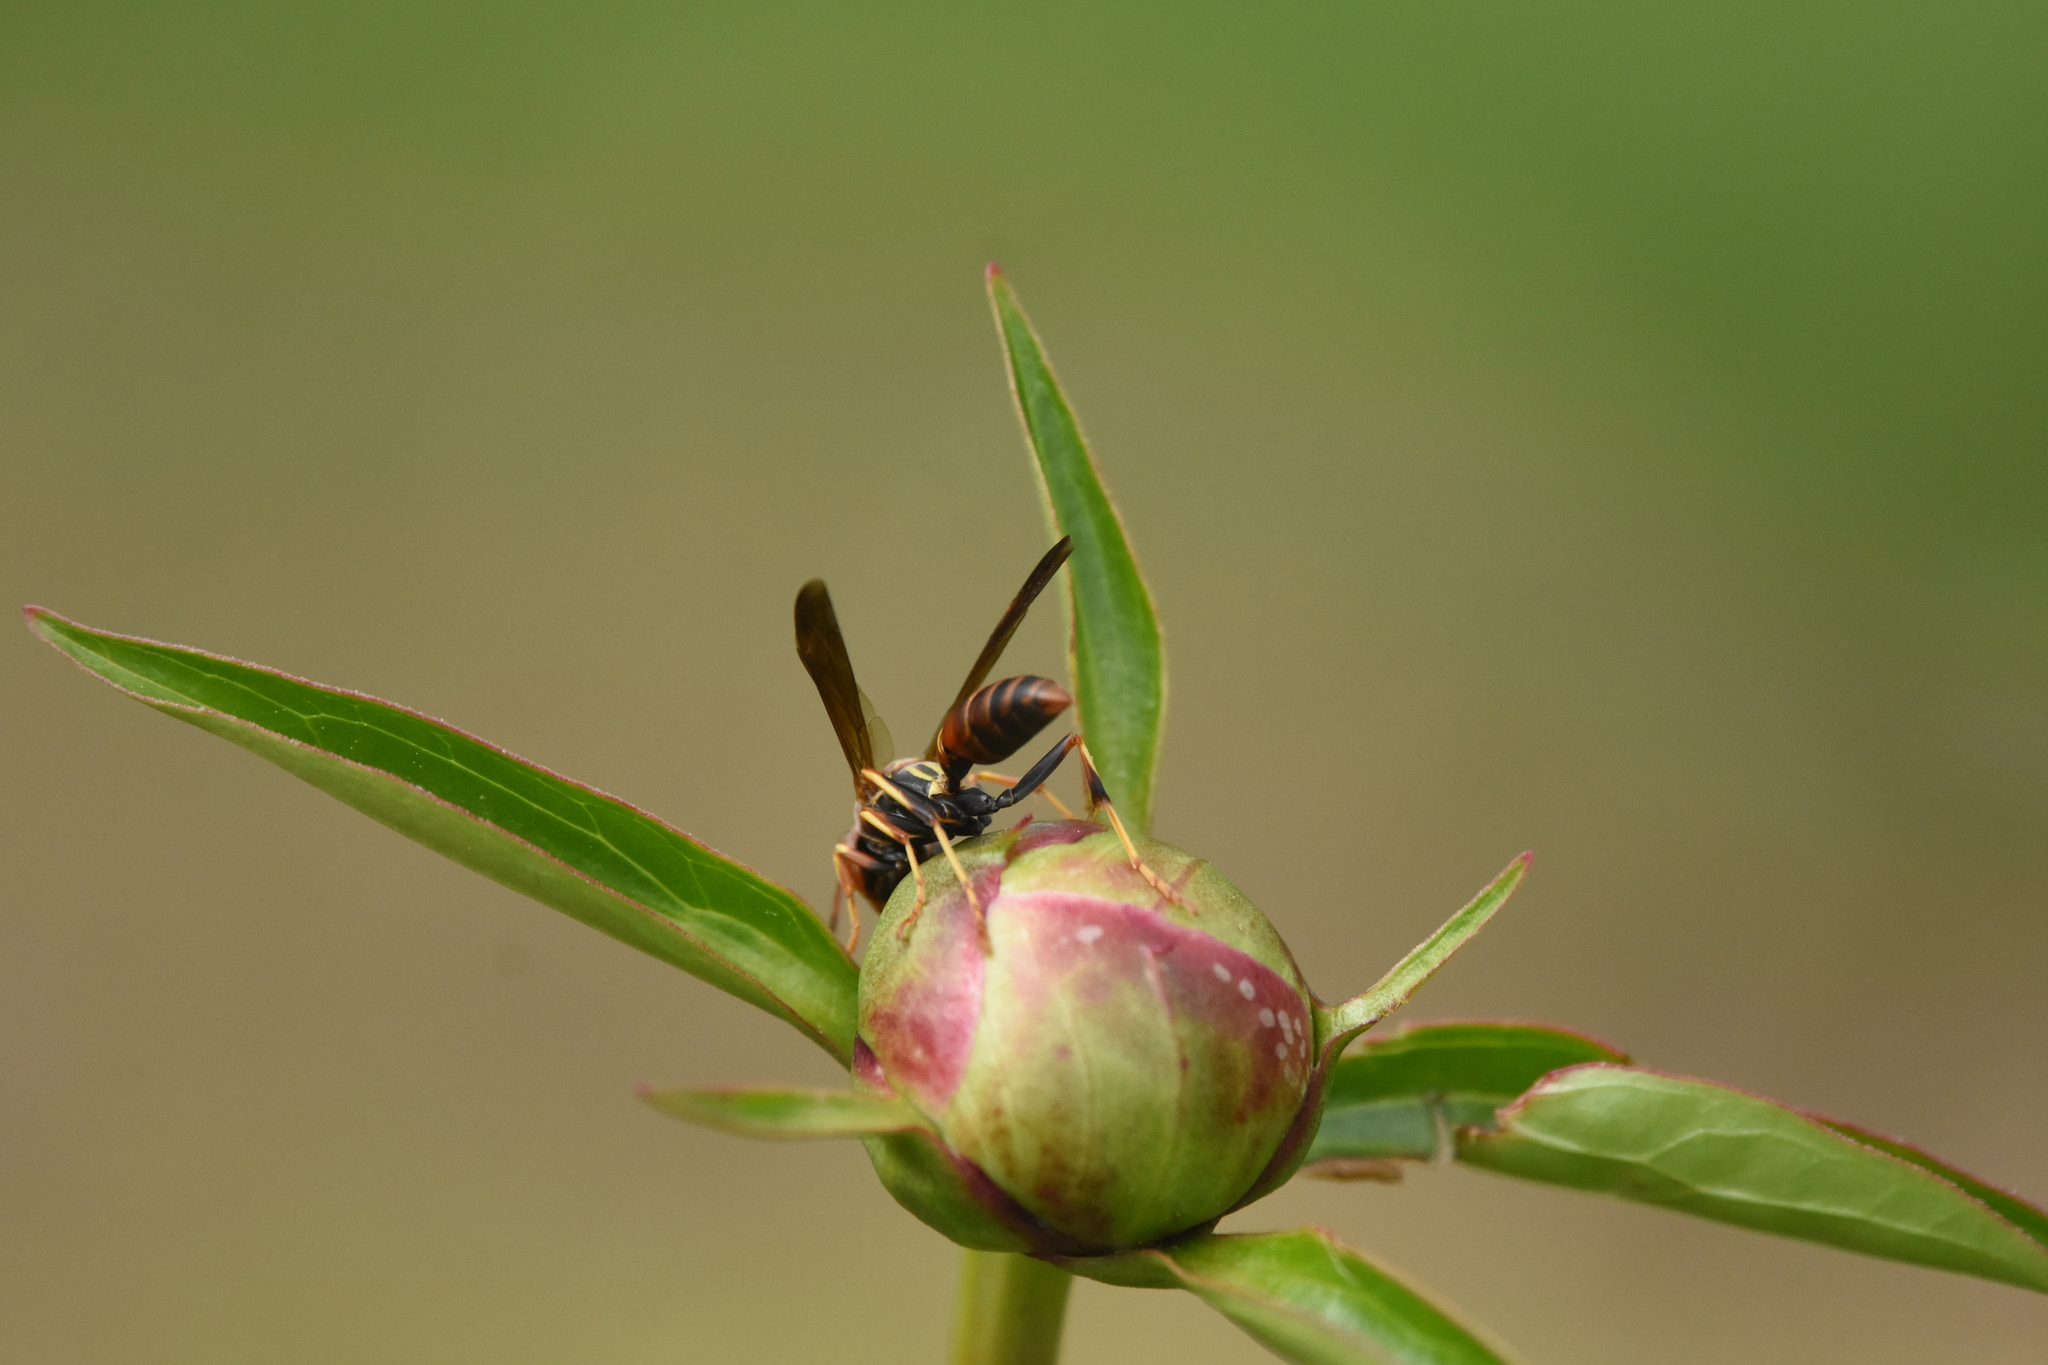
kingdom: Animalia
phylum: Arthropoda
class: Insecta
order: Hymenoptera
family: Eumenidae
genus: Polistes
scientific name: Polistes fuscatus
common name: Dark paper wasp
